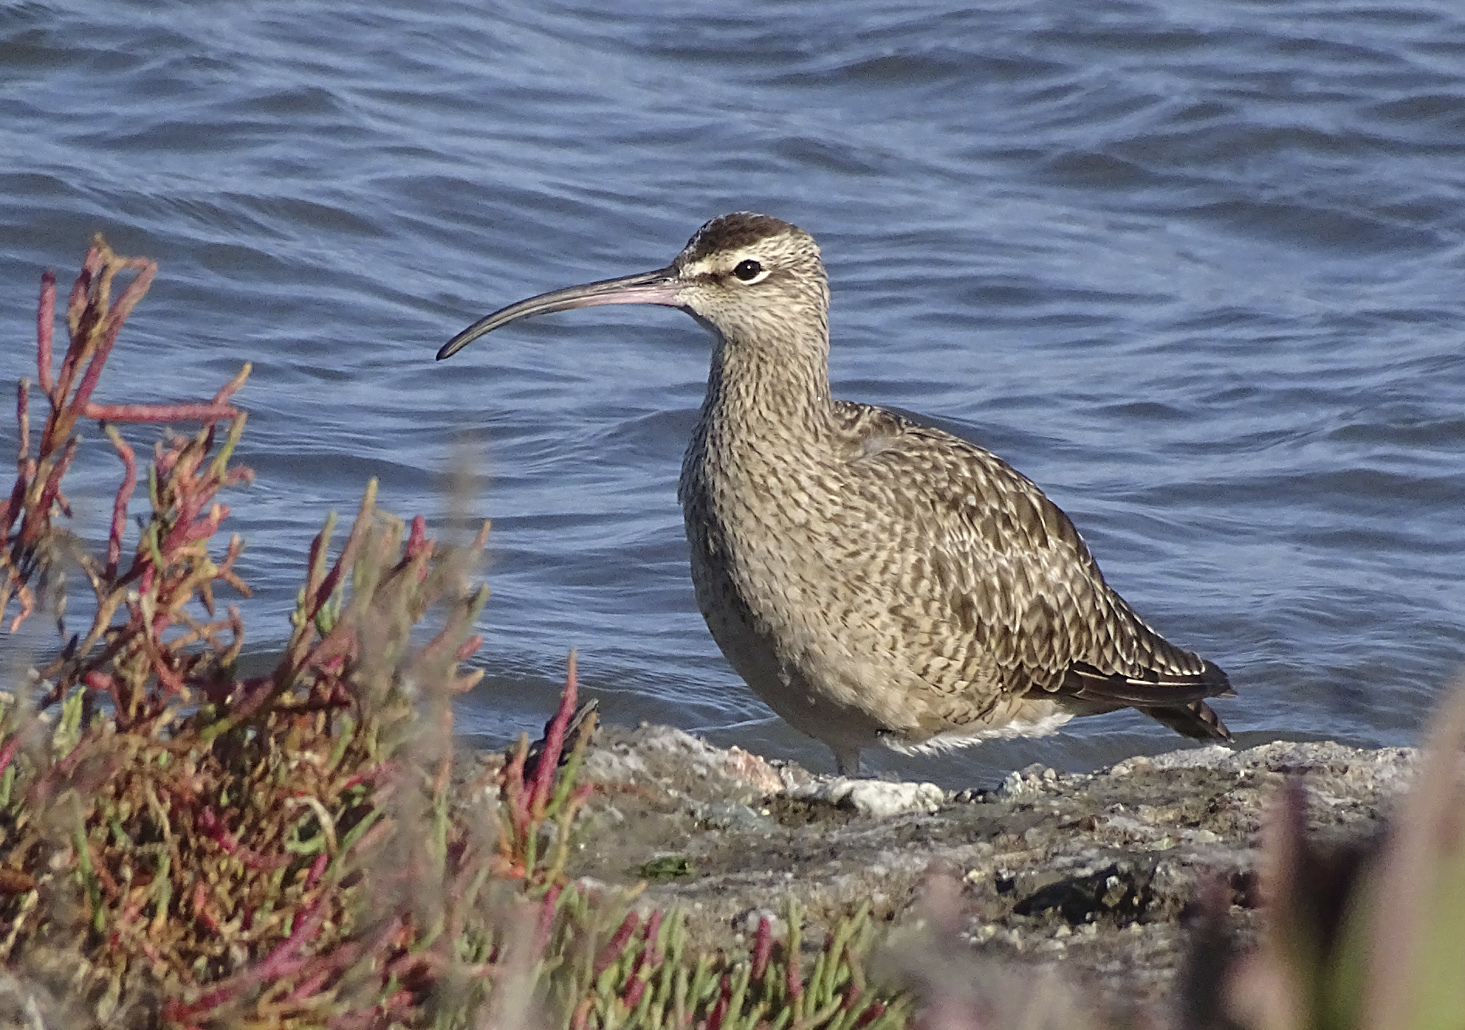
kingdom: Animalia
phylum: Chordata
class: Aves
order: Charadriiformes
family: Scolopacidae
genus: Numenius
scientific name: Numenius phaeopus
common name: Whimbrel
